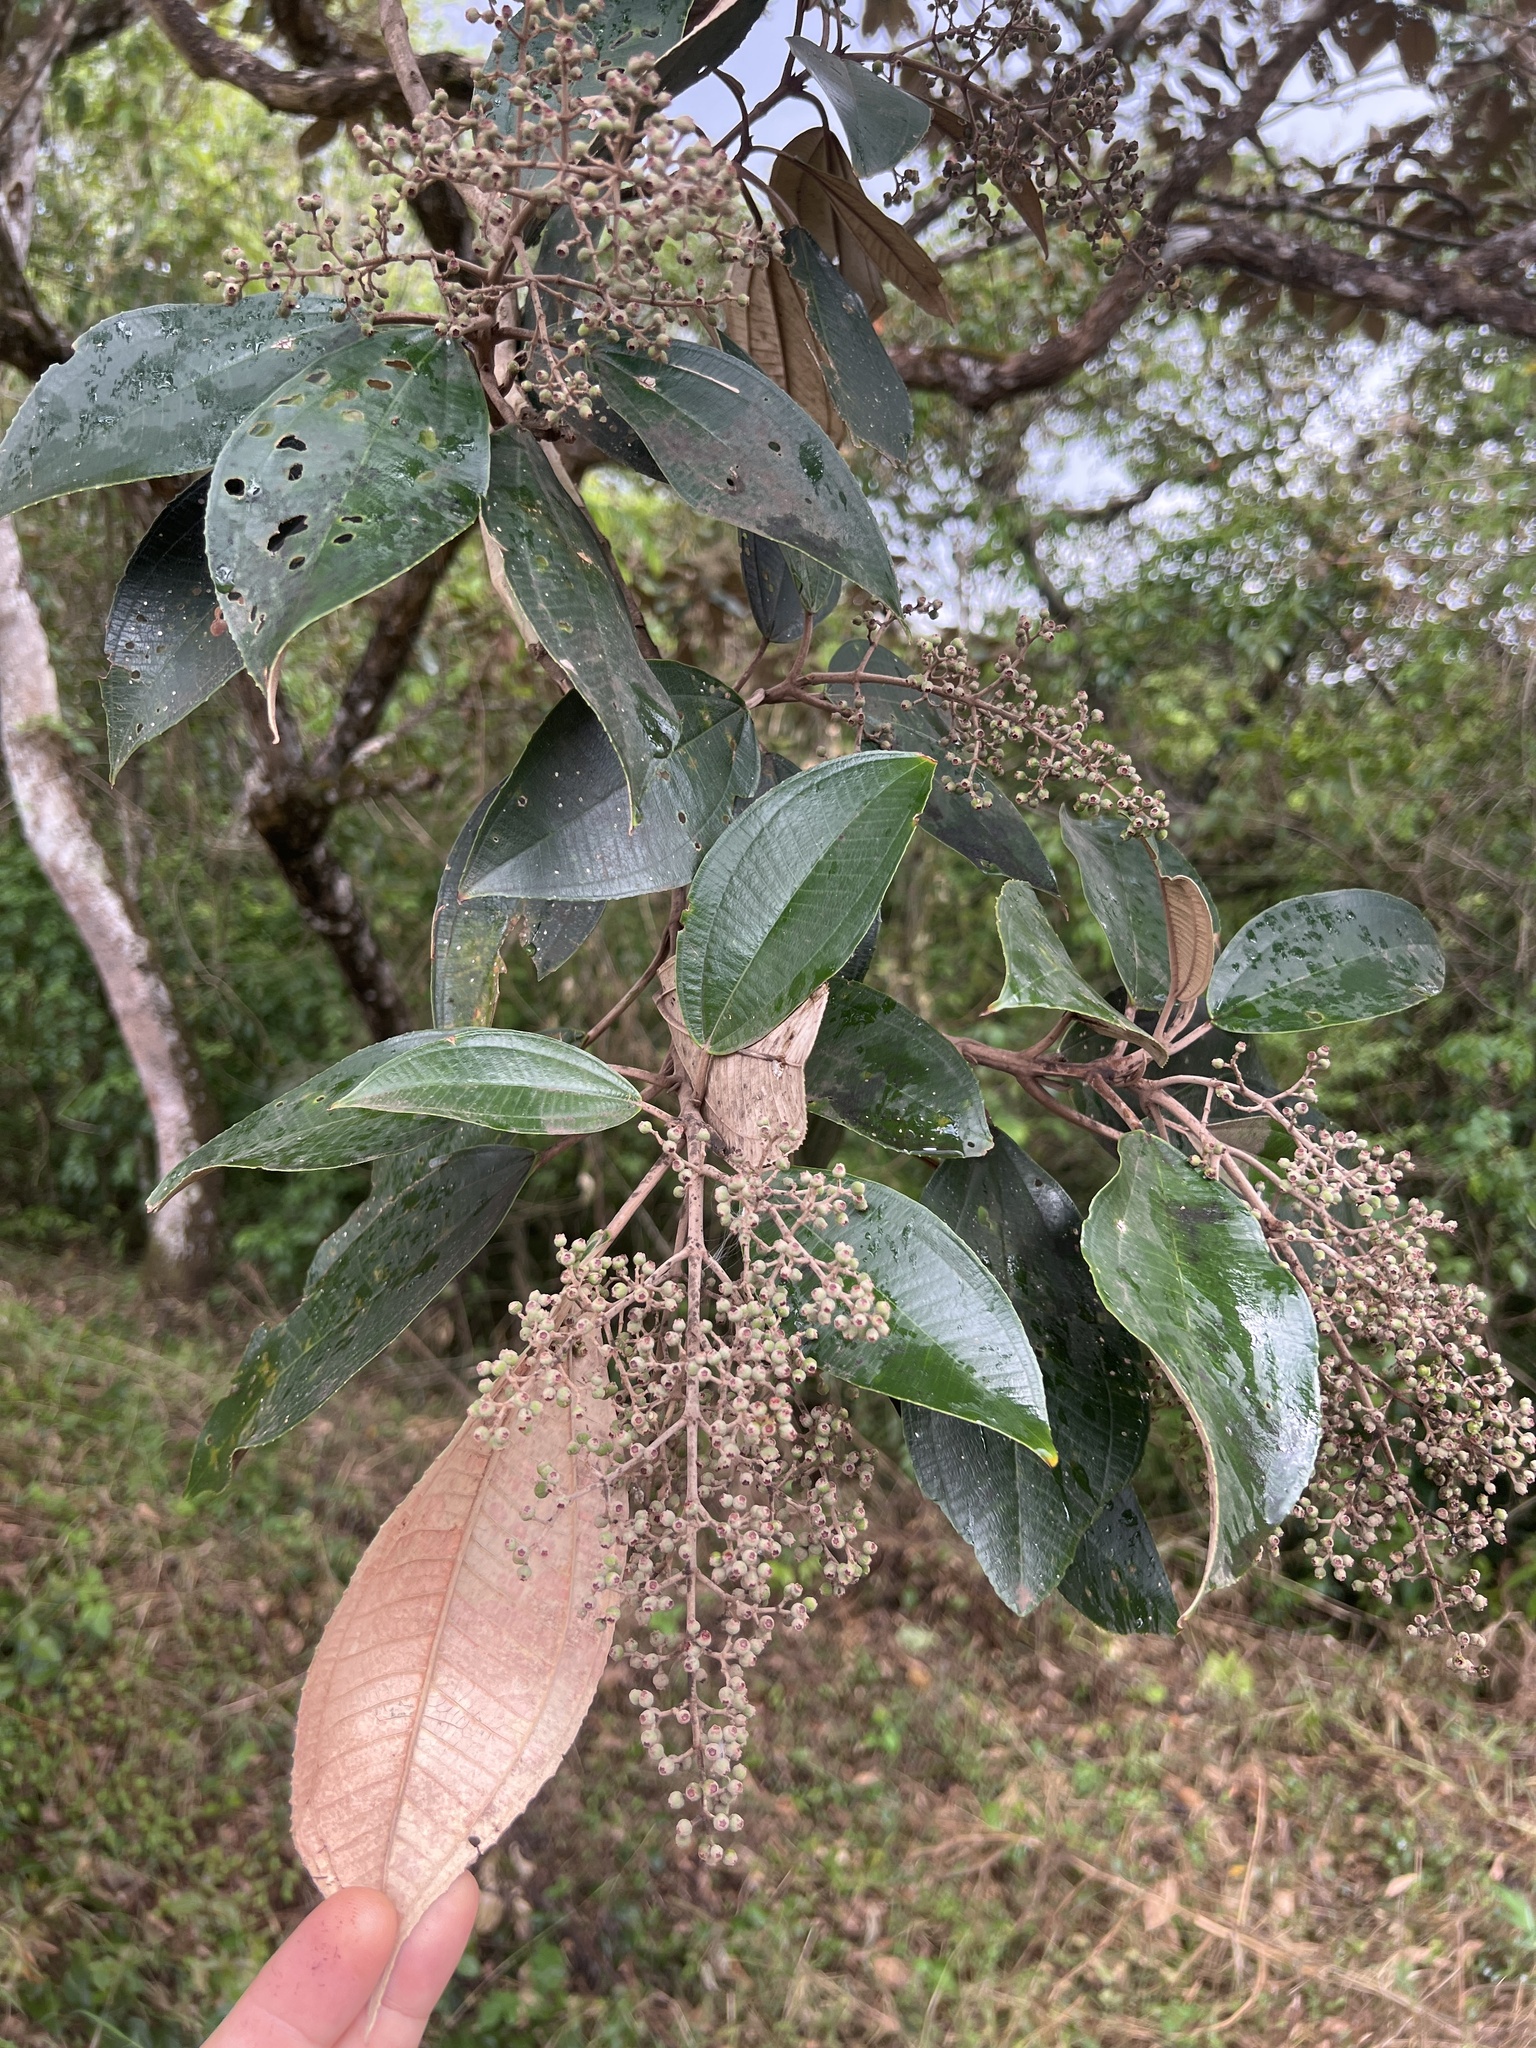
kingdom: Plantae
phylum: Tracheophyta
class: Magnoliopsida
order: Myrtales
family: Melastomataceae
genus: Miconia
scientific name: Miconia argentea
